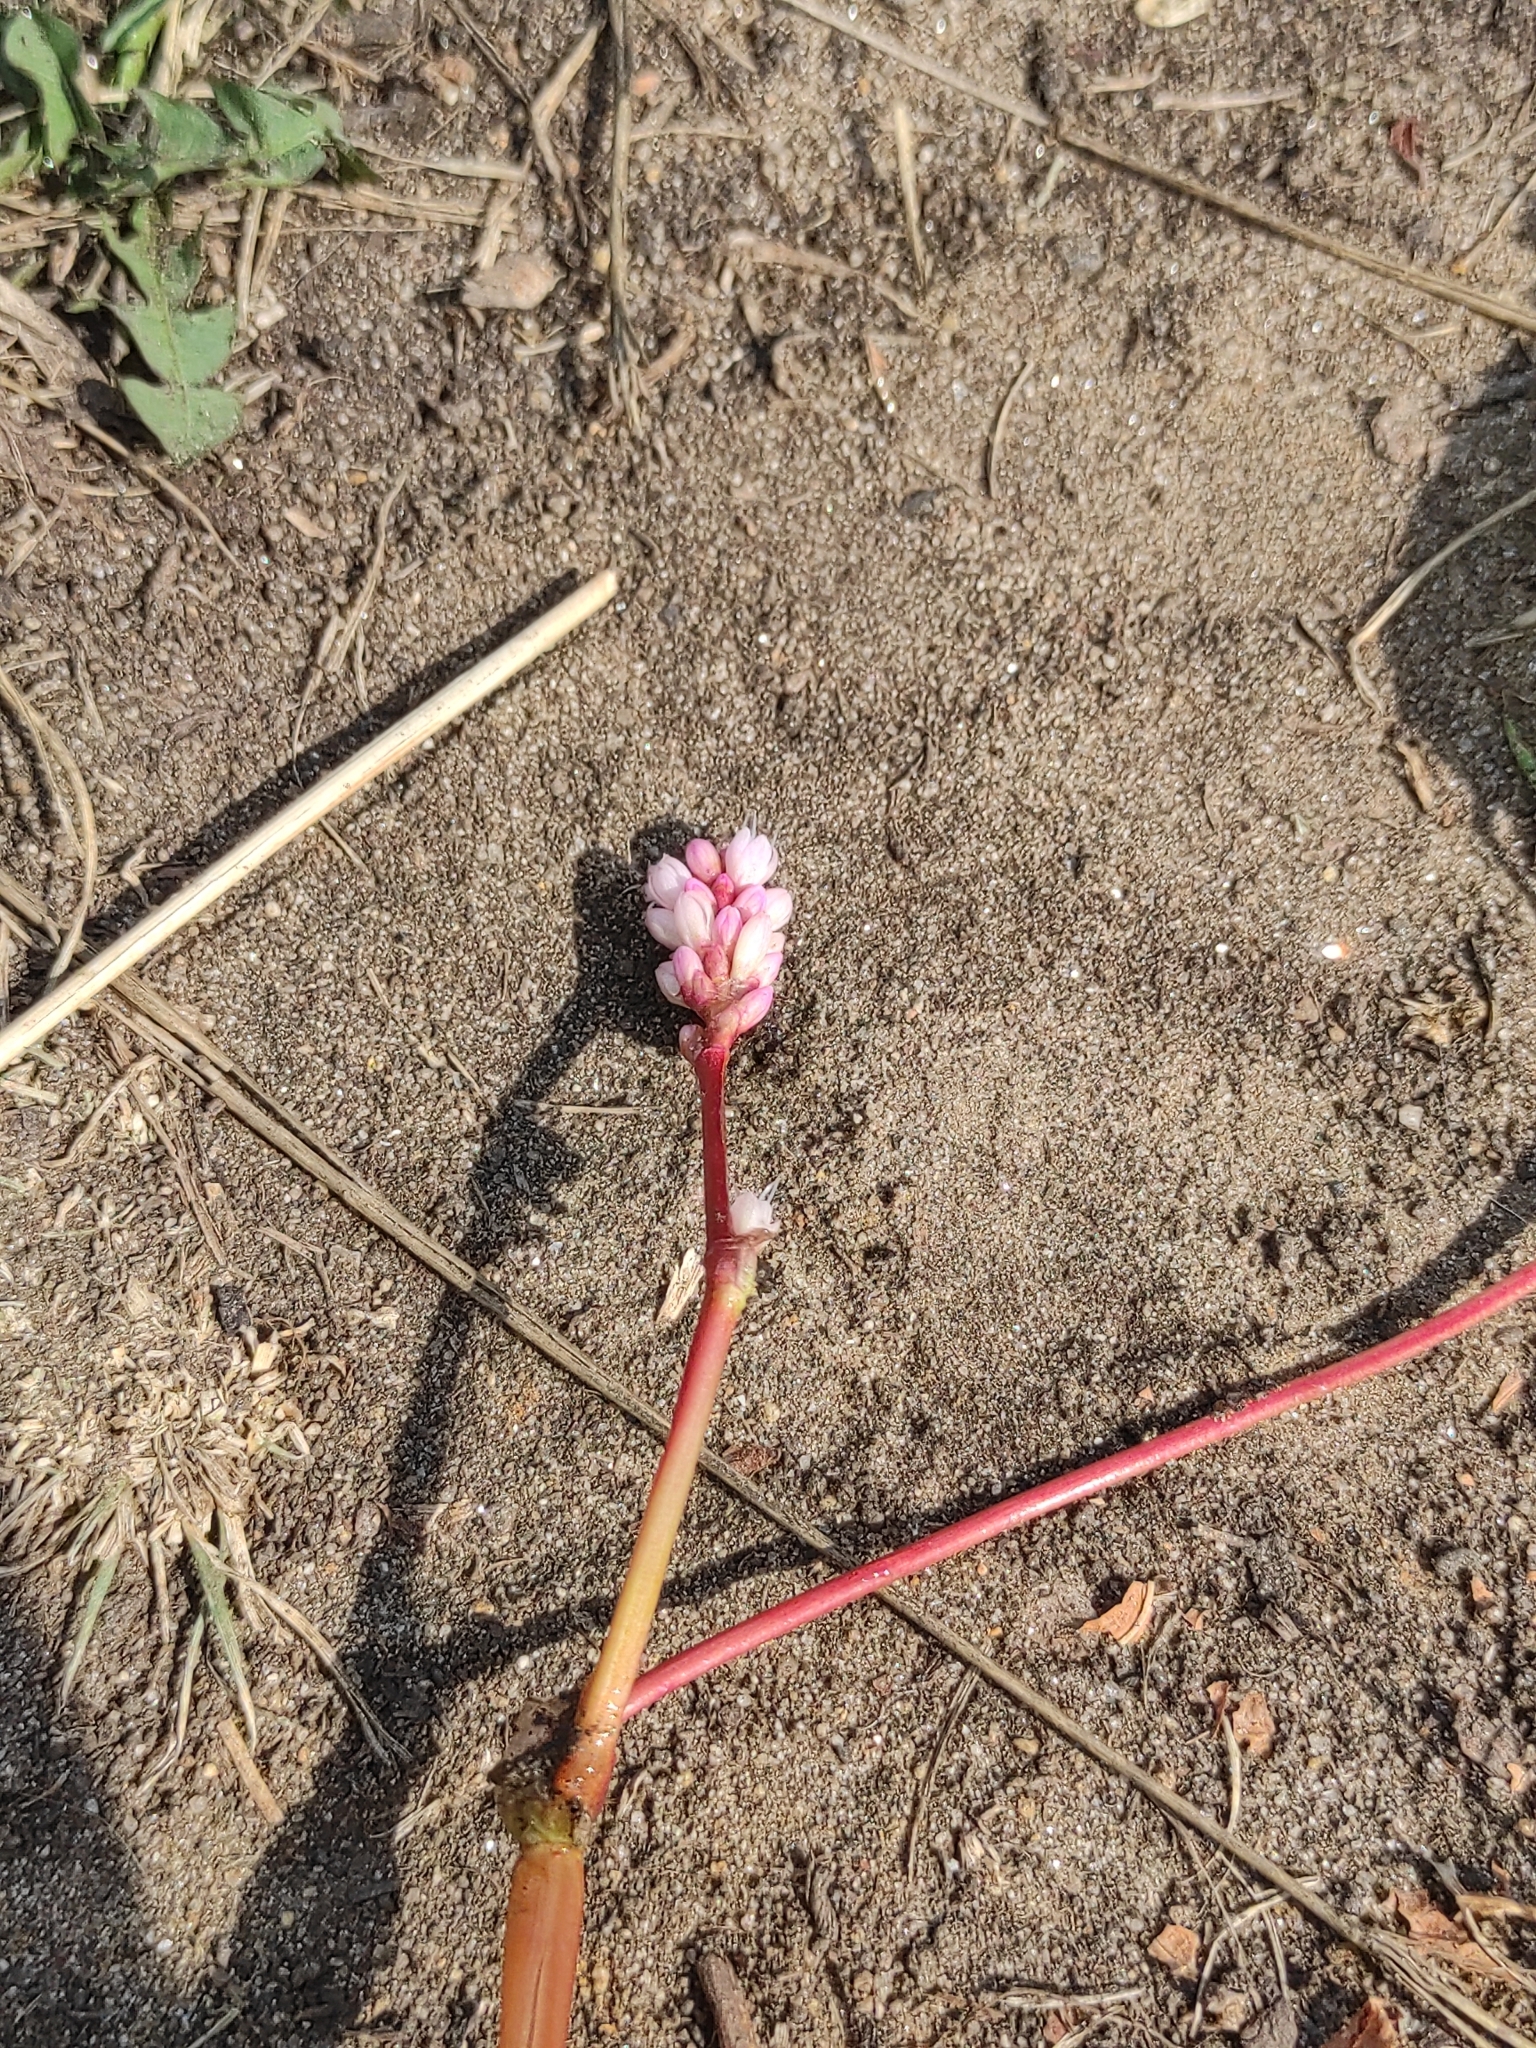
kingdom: Plantae
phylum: Tracheophyta
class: Magnoliopsida
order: Caryophyllales
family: Polygonaceae
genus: Persicaria
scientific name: Persicaria amphibia
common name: Amphibious bistort
